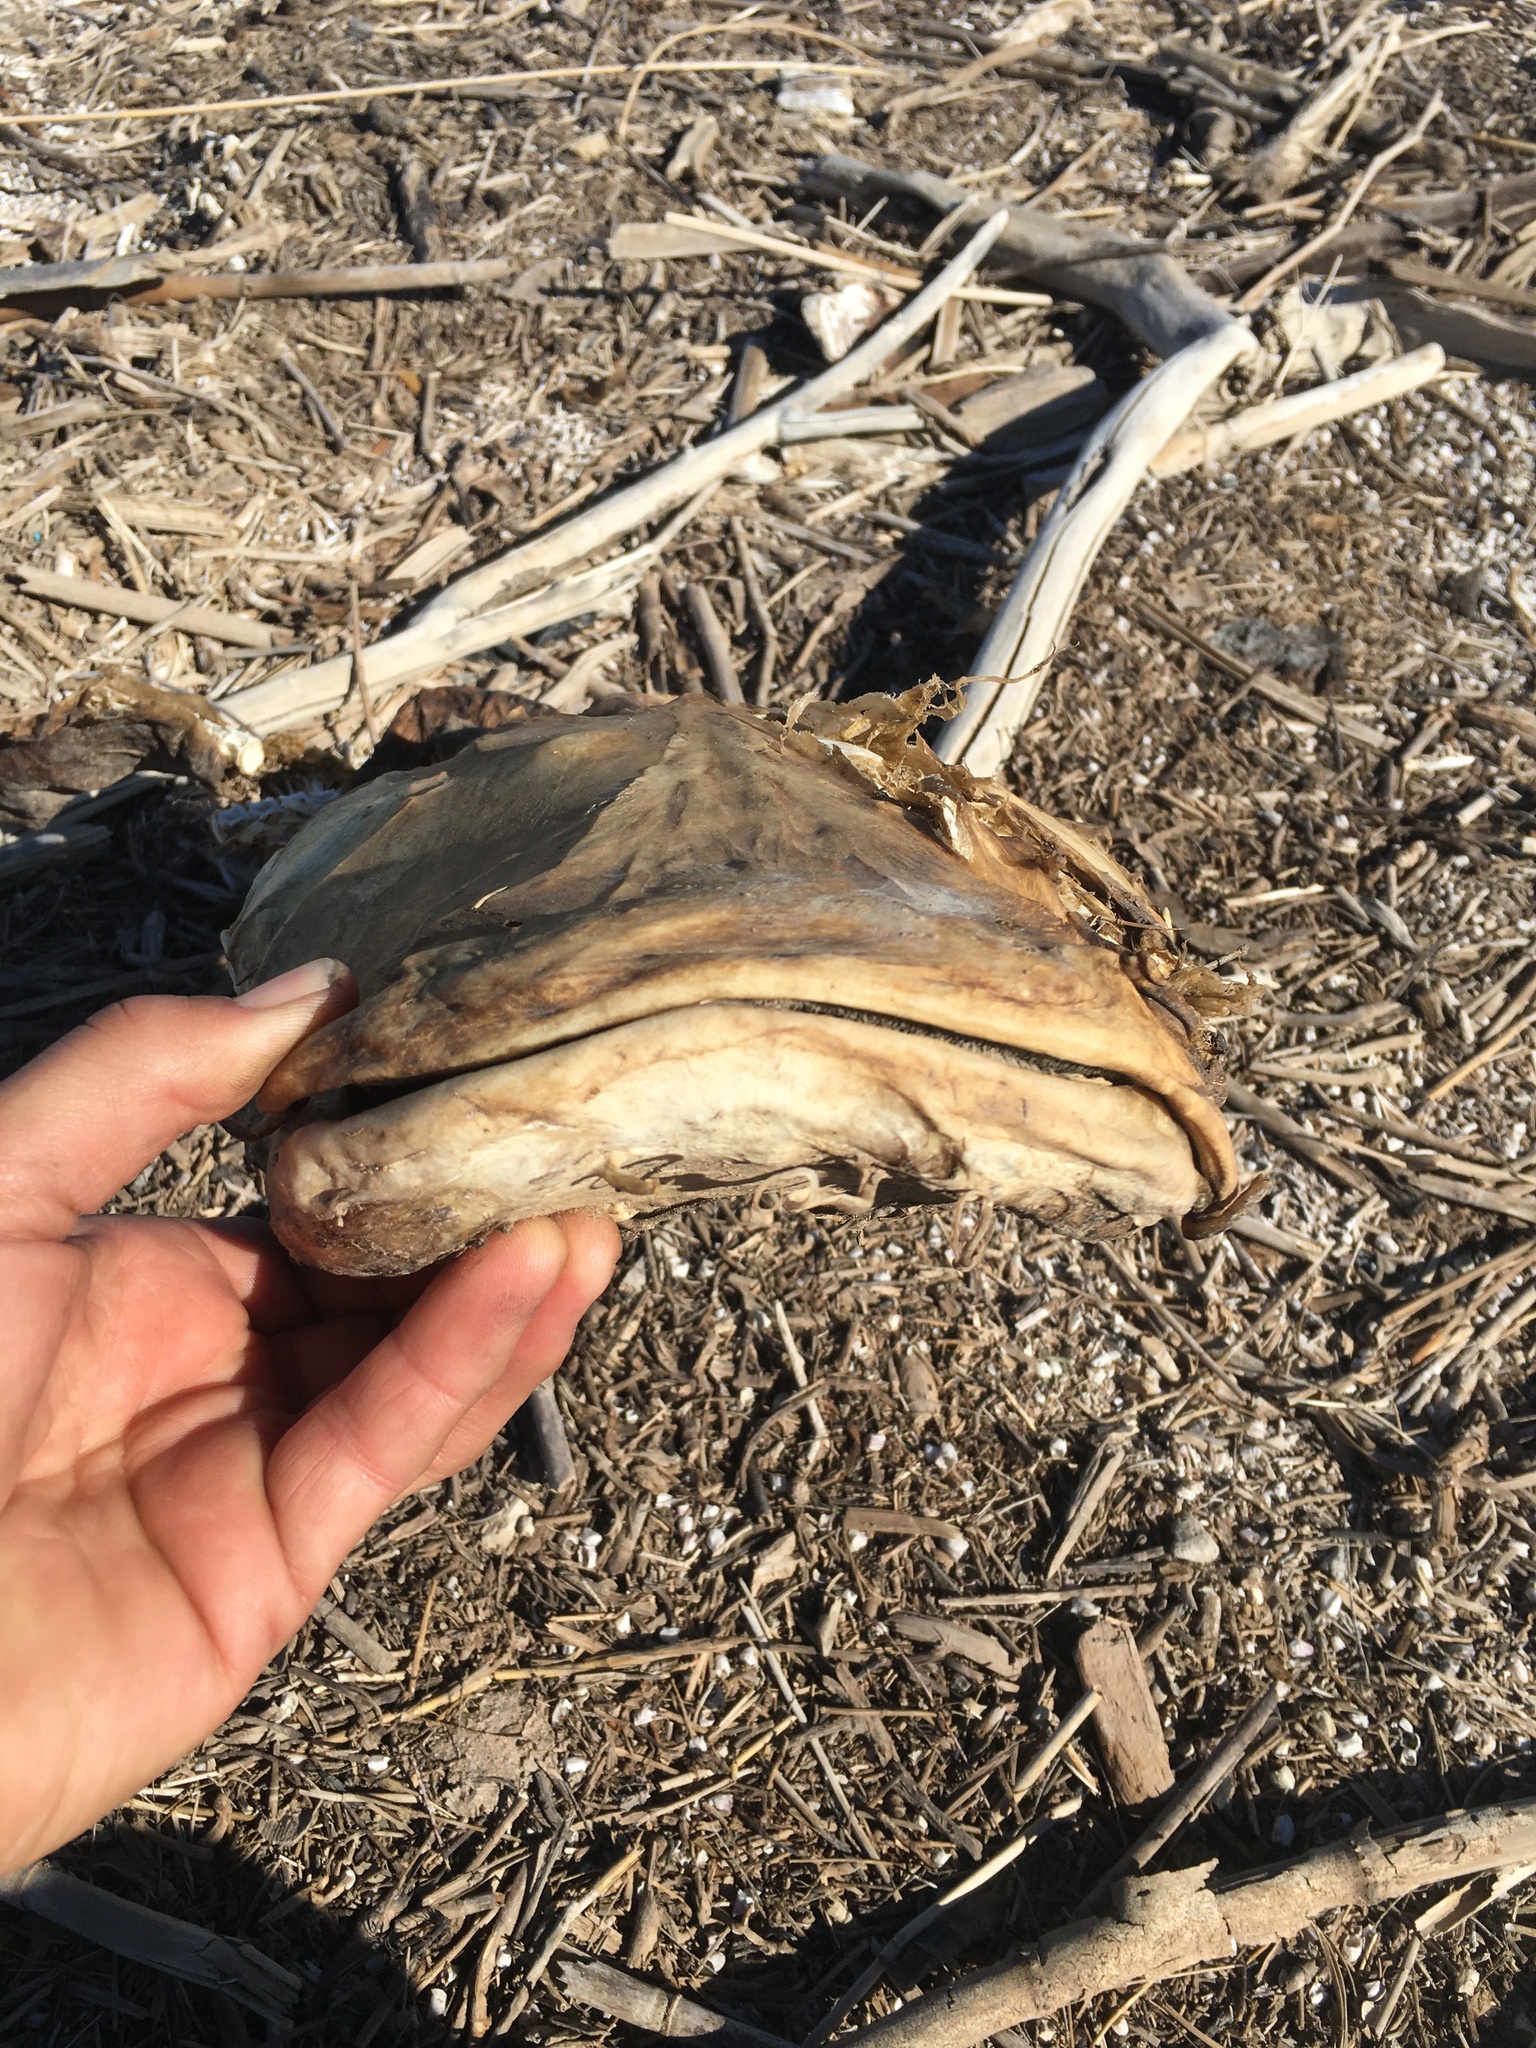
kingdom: Animalia
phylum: Chordata
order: Siluriformes
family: Ictaluridae
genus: Pylodictis
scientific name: Pylodictis olivaris
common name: Flathead catfish
